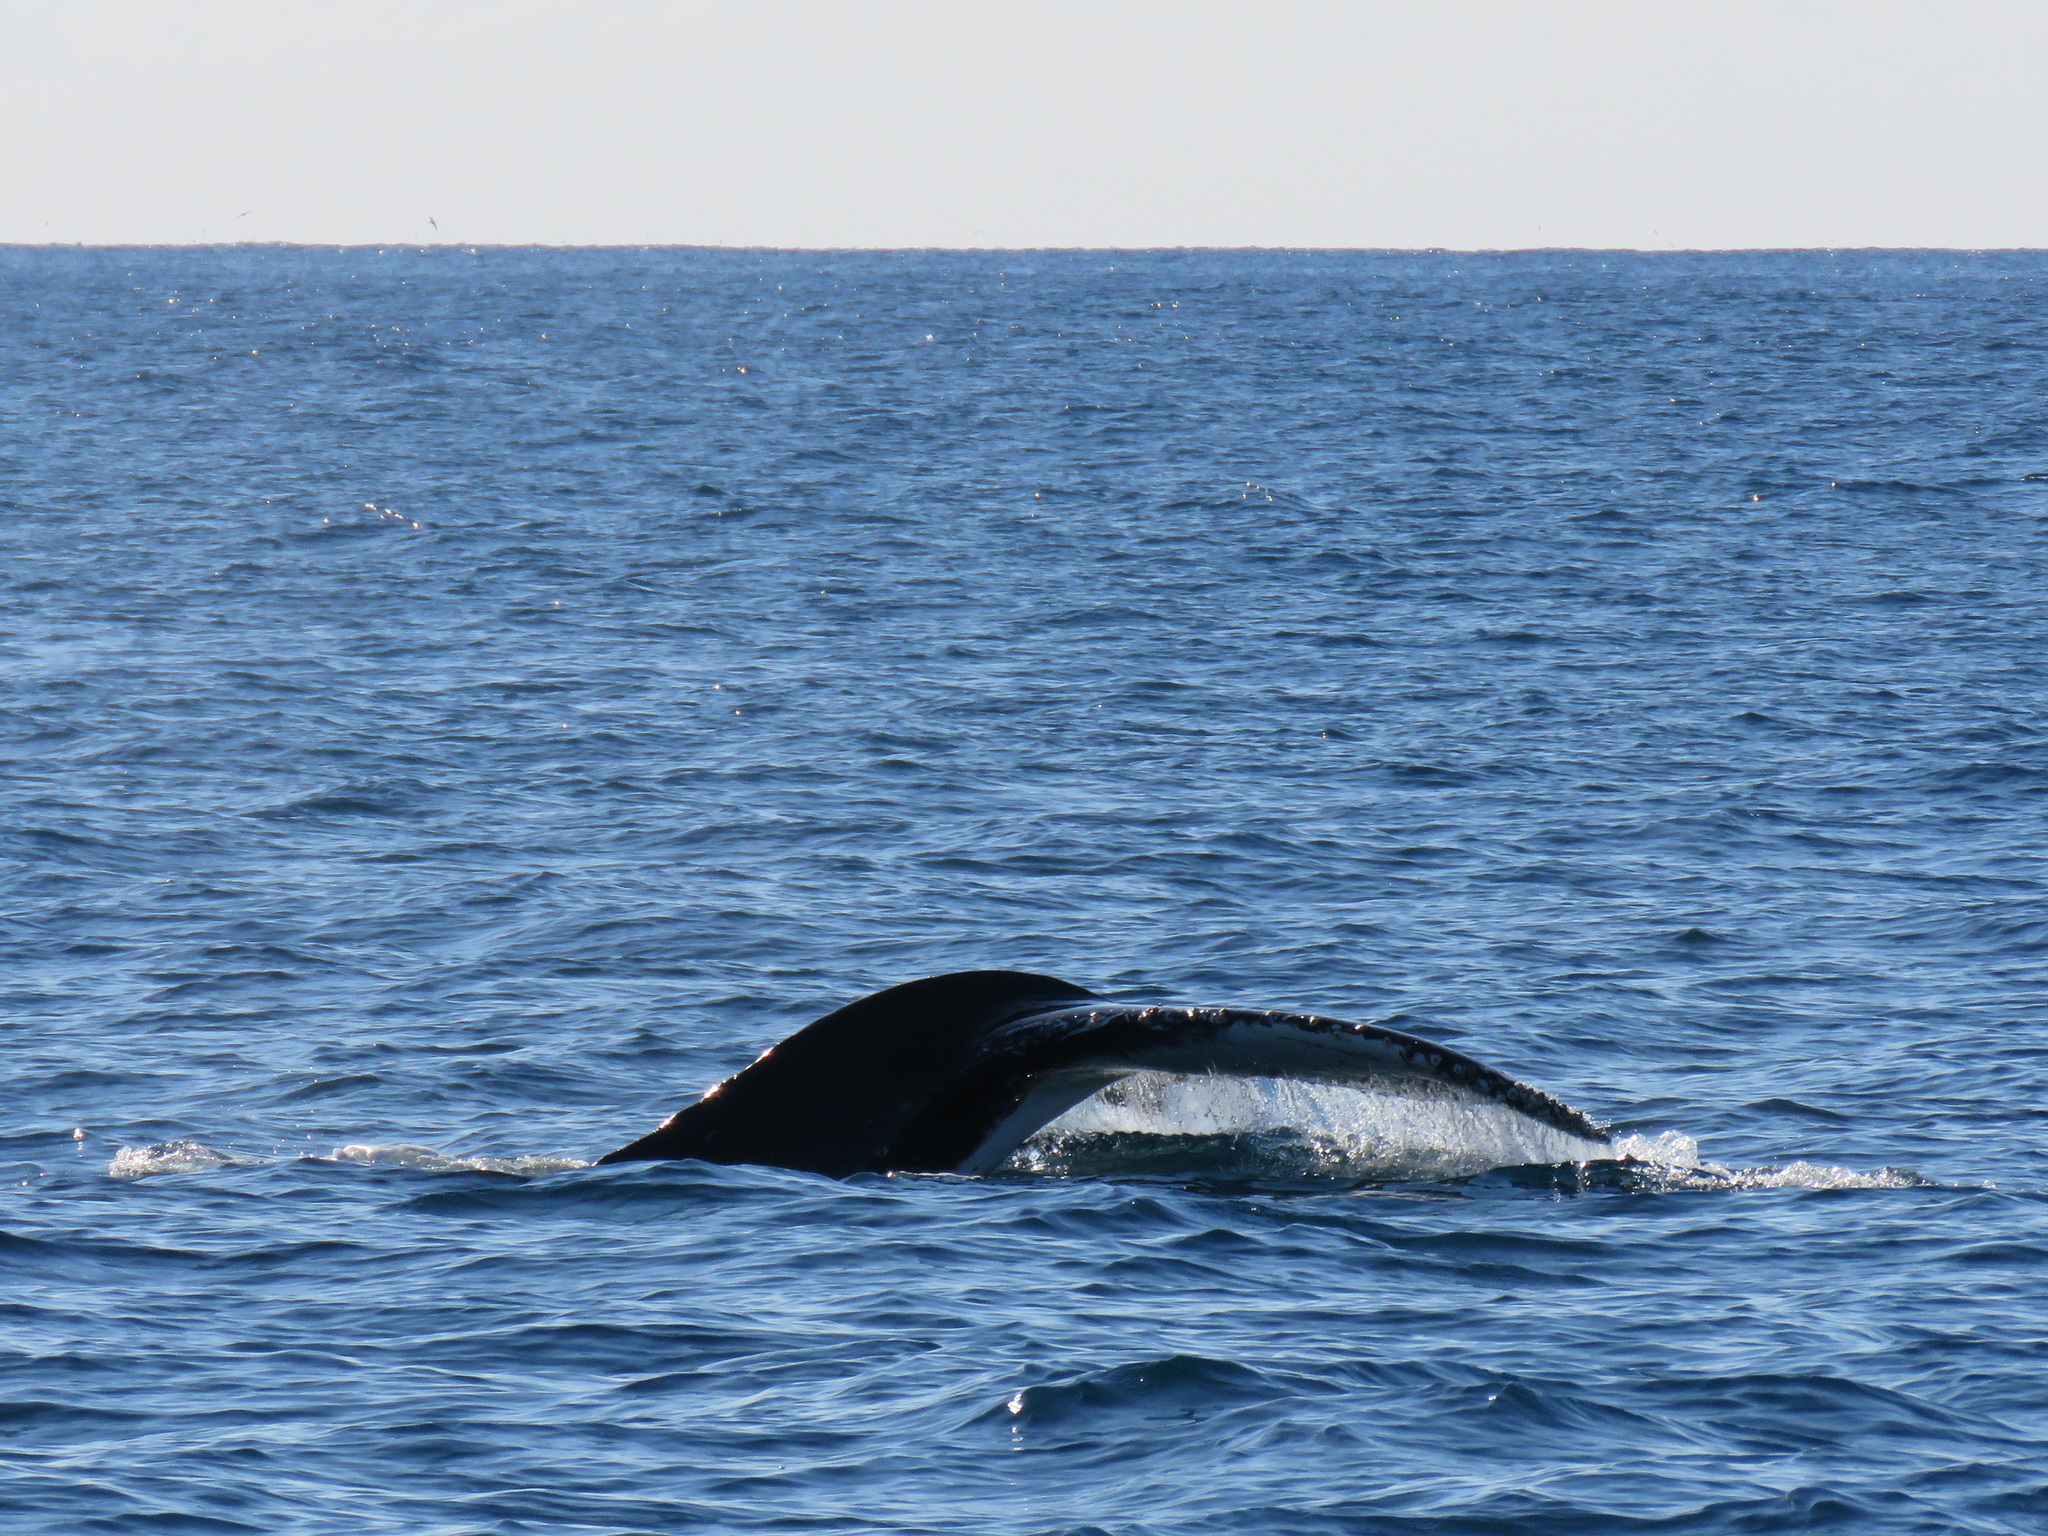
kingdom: Animalia
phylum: Chordata
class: Mammalia
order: Cetacea
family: Balaenopteridae
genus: Megaptera
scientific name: Megaptera novaeangliae
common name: Humpback whale
